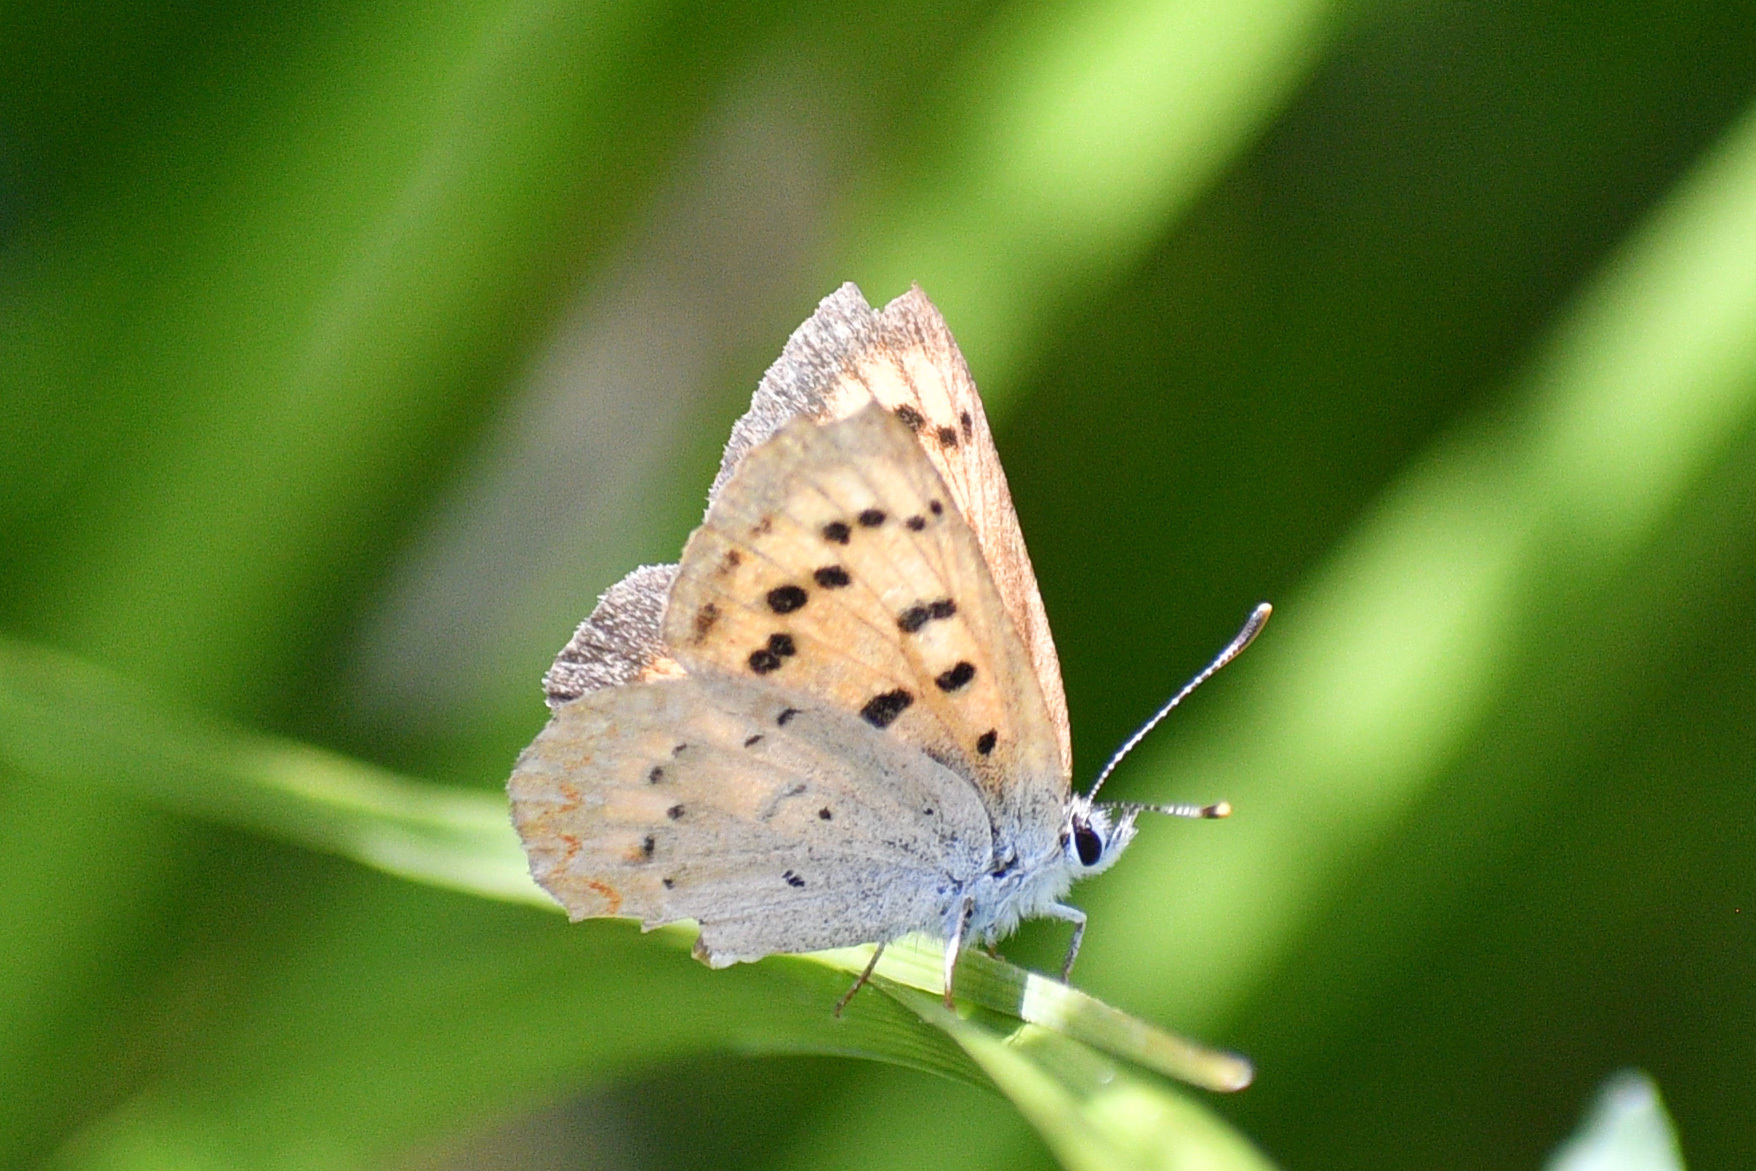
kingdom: Animalia
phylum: Arthropoda
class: Insecta
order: Lepidoptera
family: Lycaenidae
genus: Tharsalea
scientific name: Tharsalea helloides
